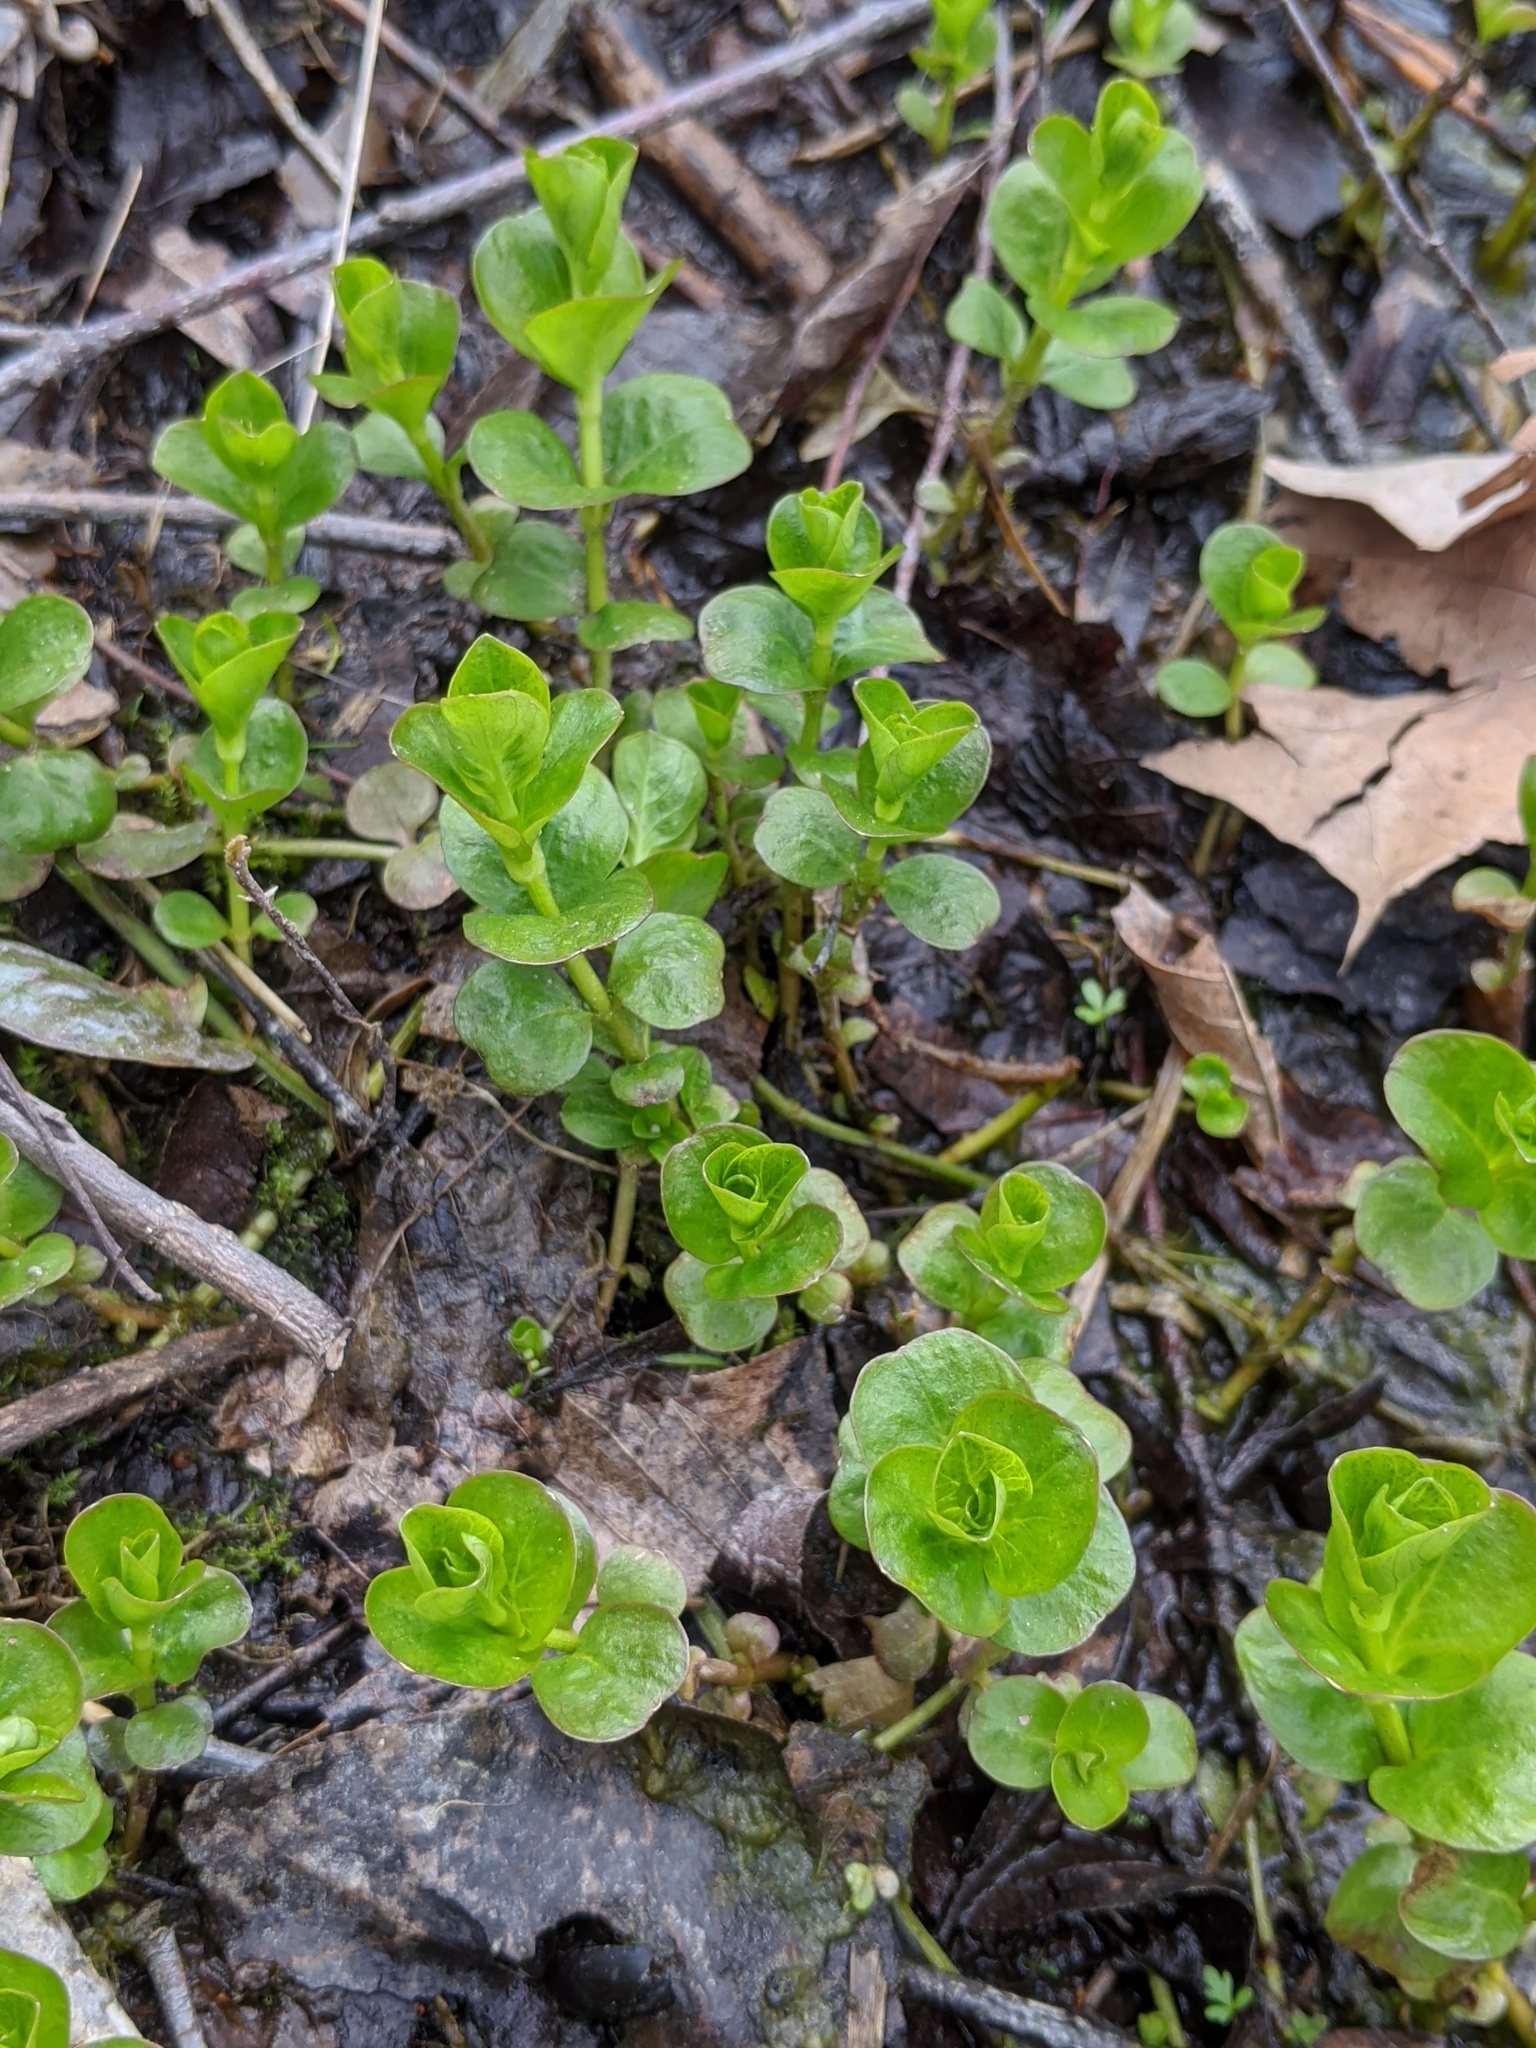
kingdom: Plantae
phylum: Tracheophyta
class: Magnoliopsida
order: Ericales
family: Primulaceae
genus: Lysimachia
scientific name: Lysimachia nummularia
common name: Moneywort
